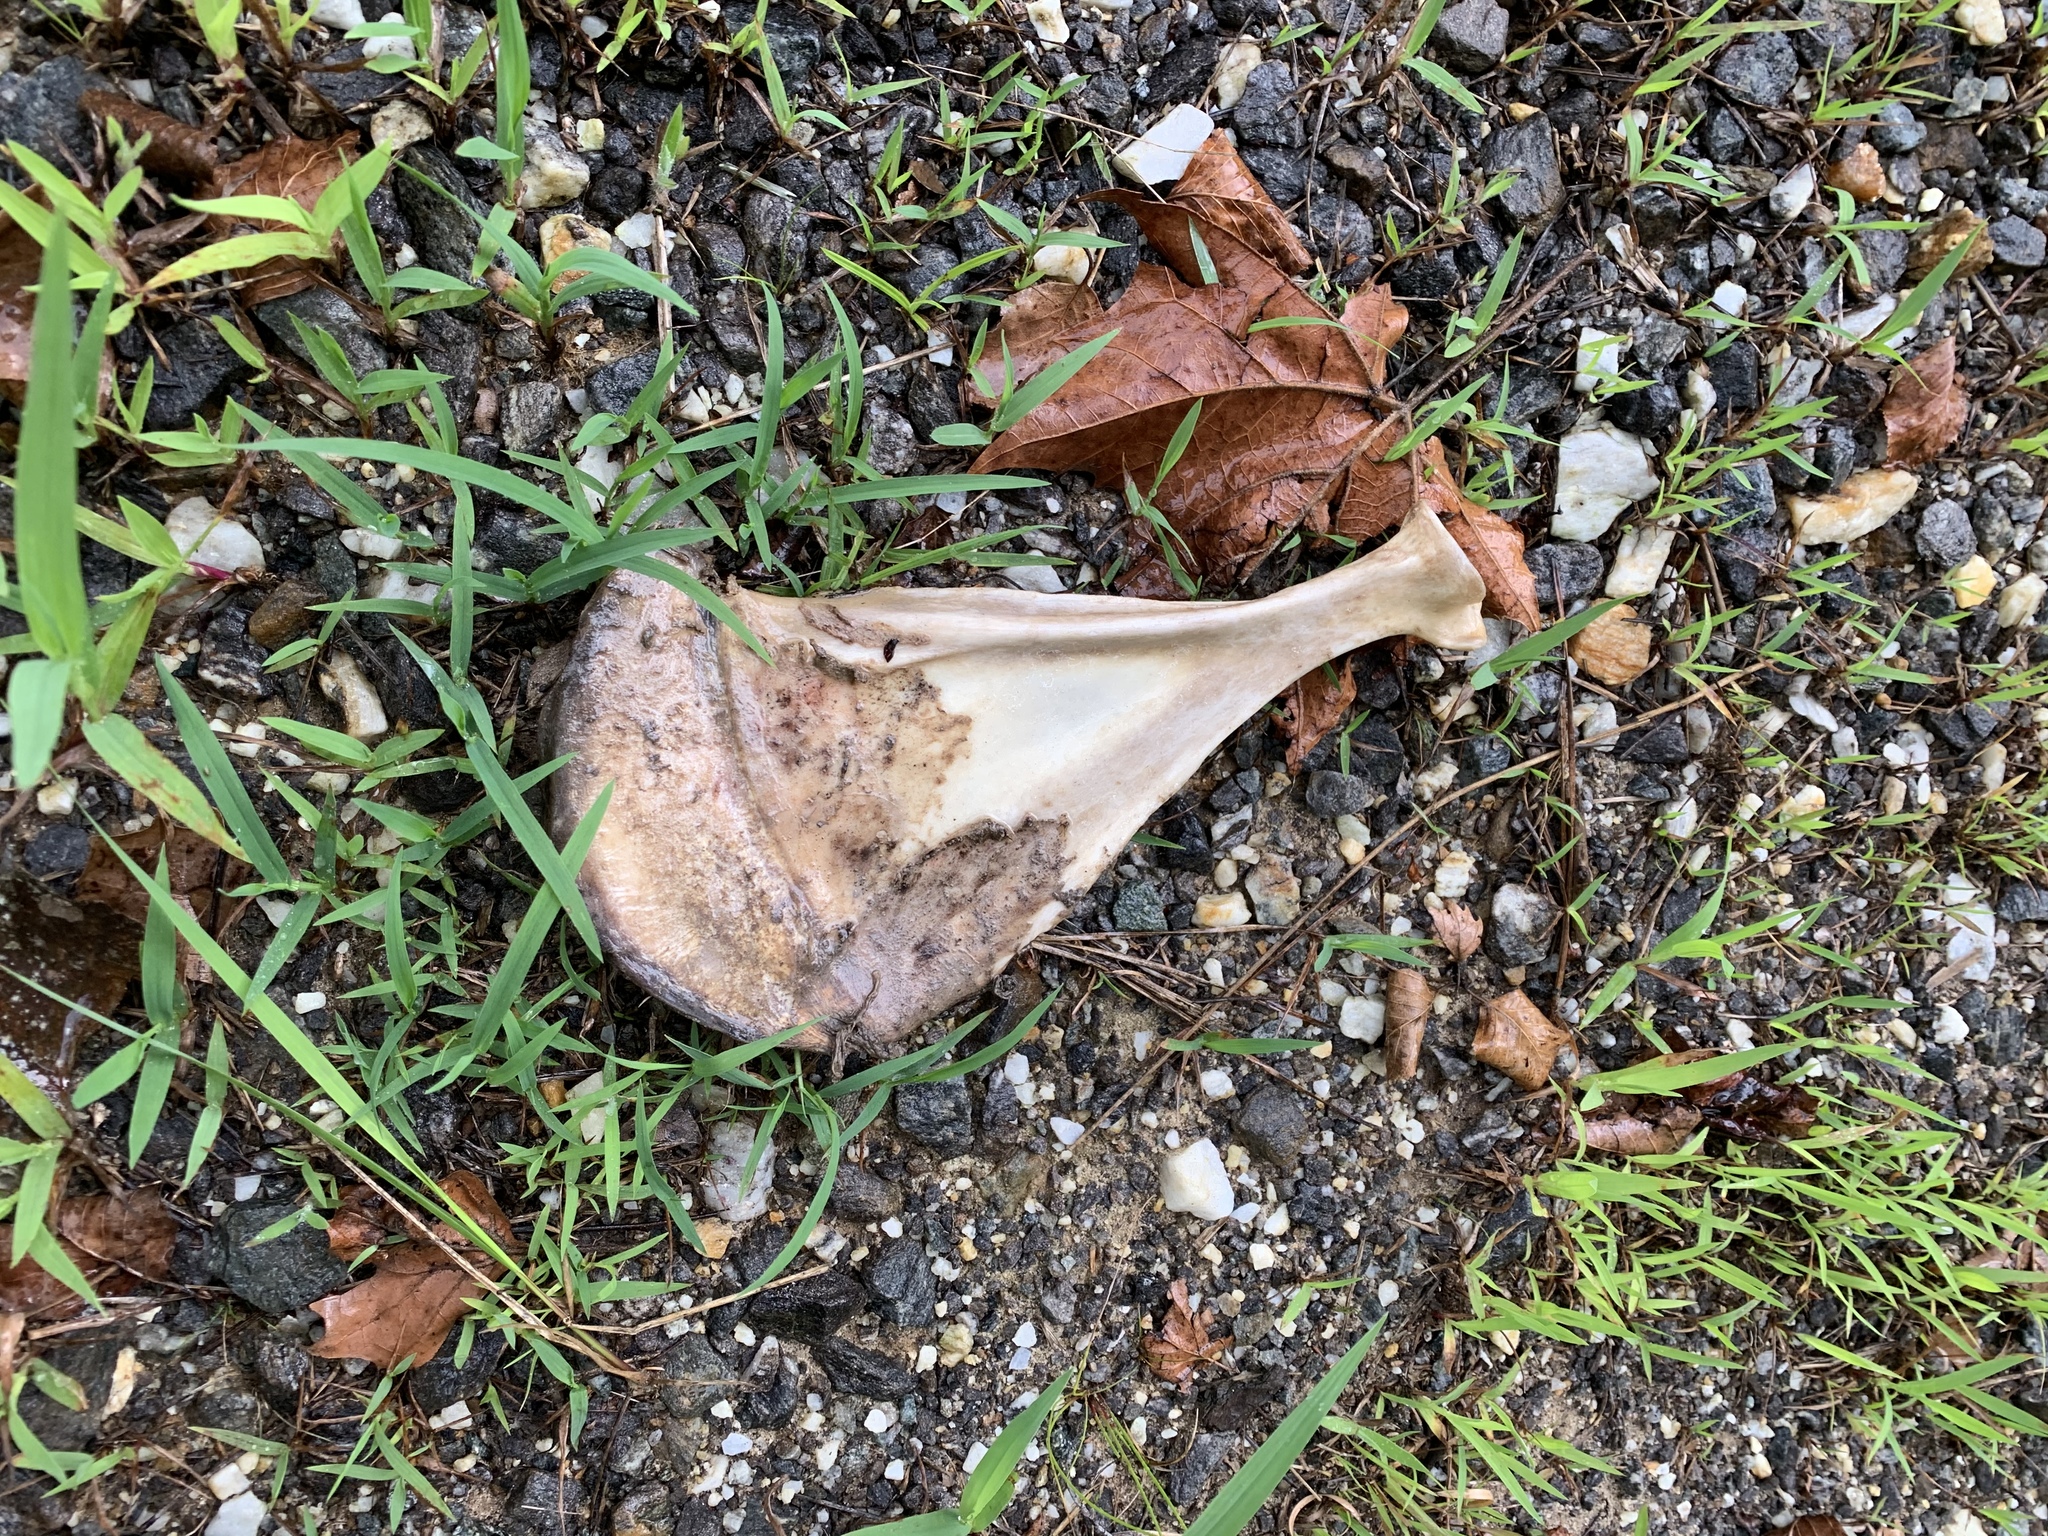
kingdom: Animalia
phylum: Chordata
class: Mammalia
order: Artiodactyla
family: Cervidae
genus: Odocoileus
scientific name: Odocoileus virginianus
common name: White-tailed deer
